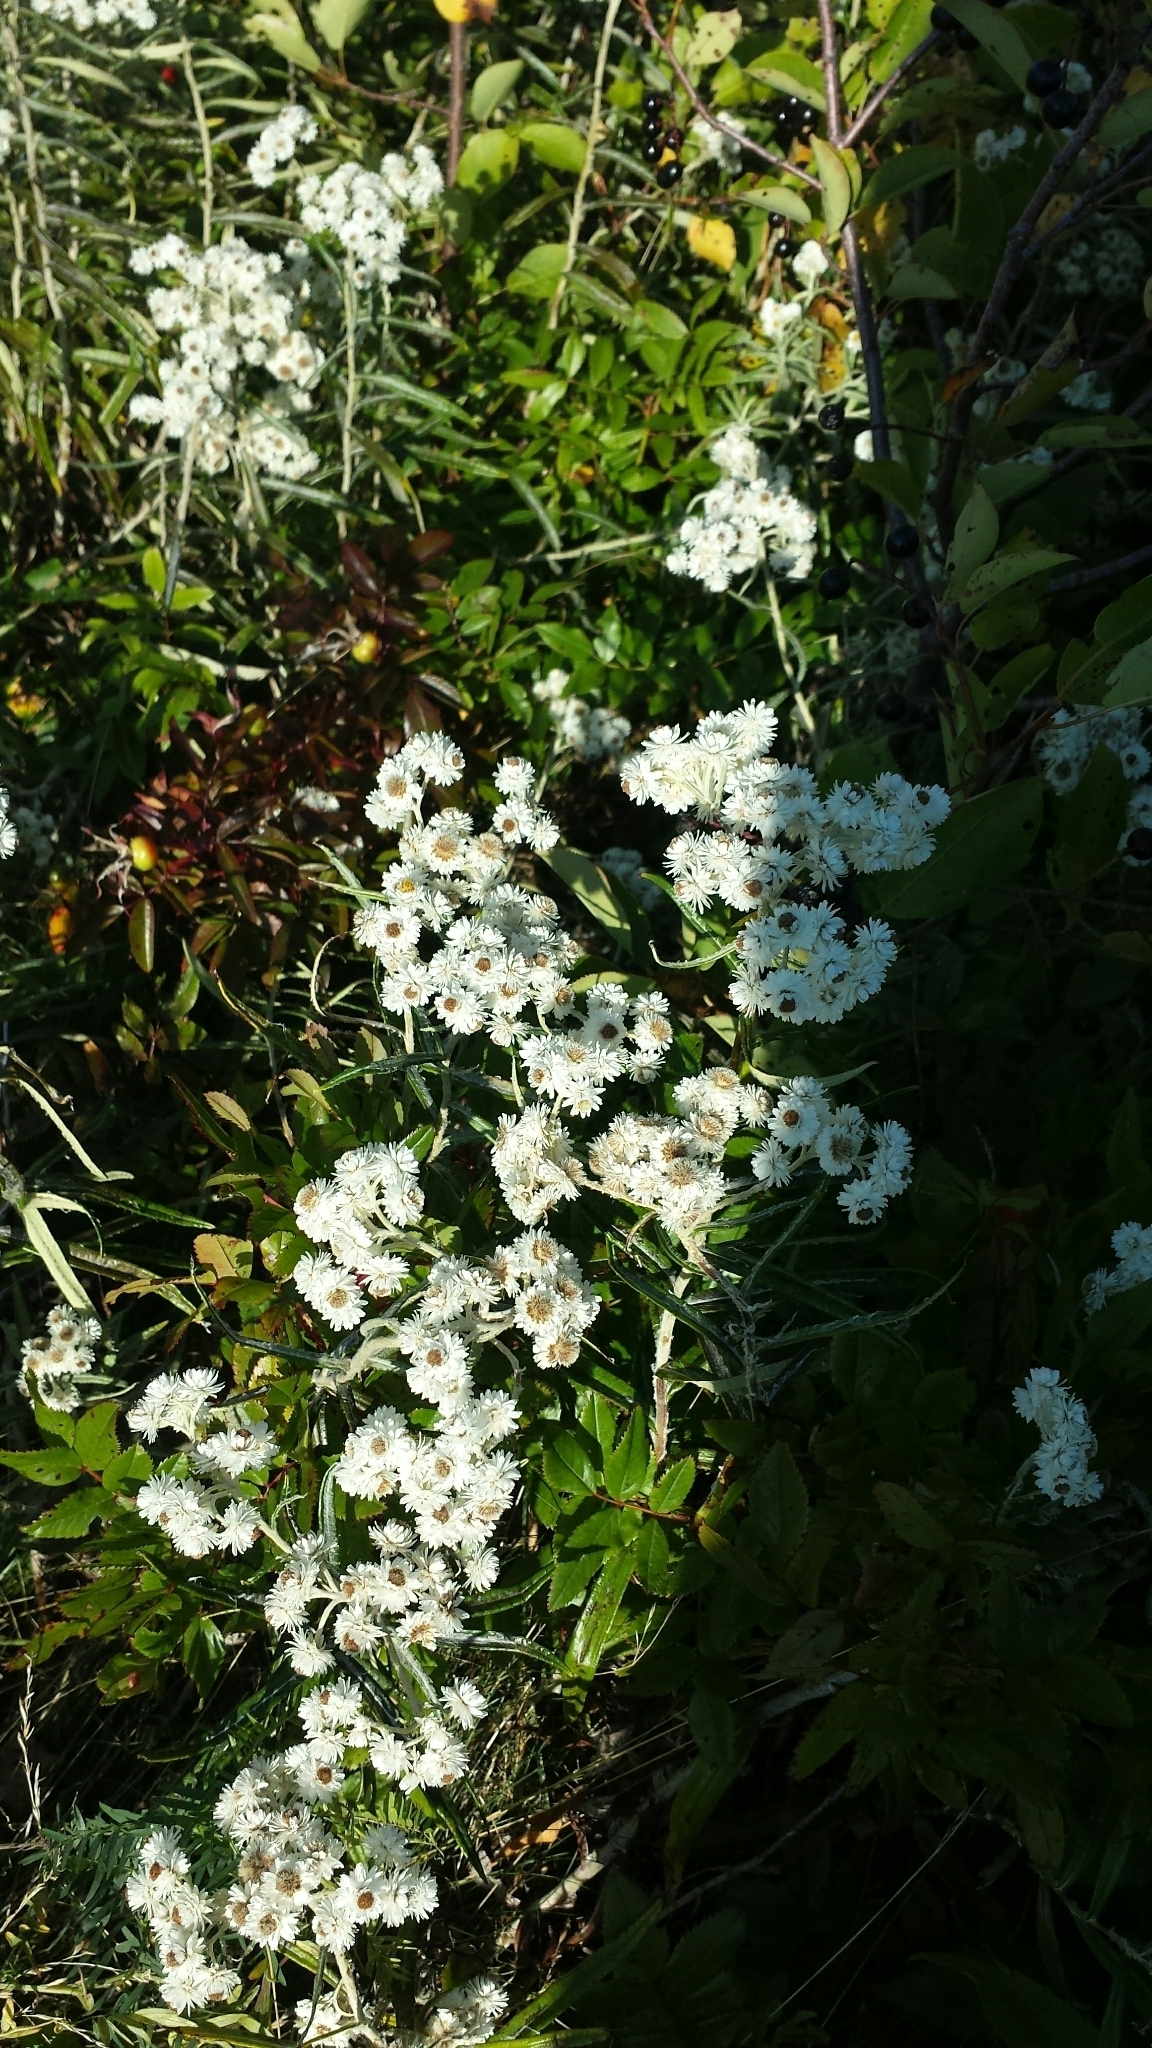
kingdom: Plantae
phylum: Tracheophyta
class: Magnoliopsida
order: Asterales
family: Asteraceae
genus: Anaphalis
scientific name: Anaphalis margaritacea
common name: Pearly everlasting
